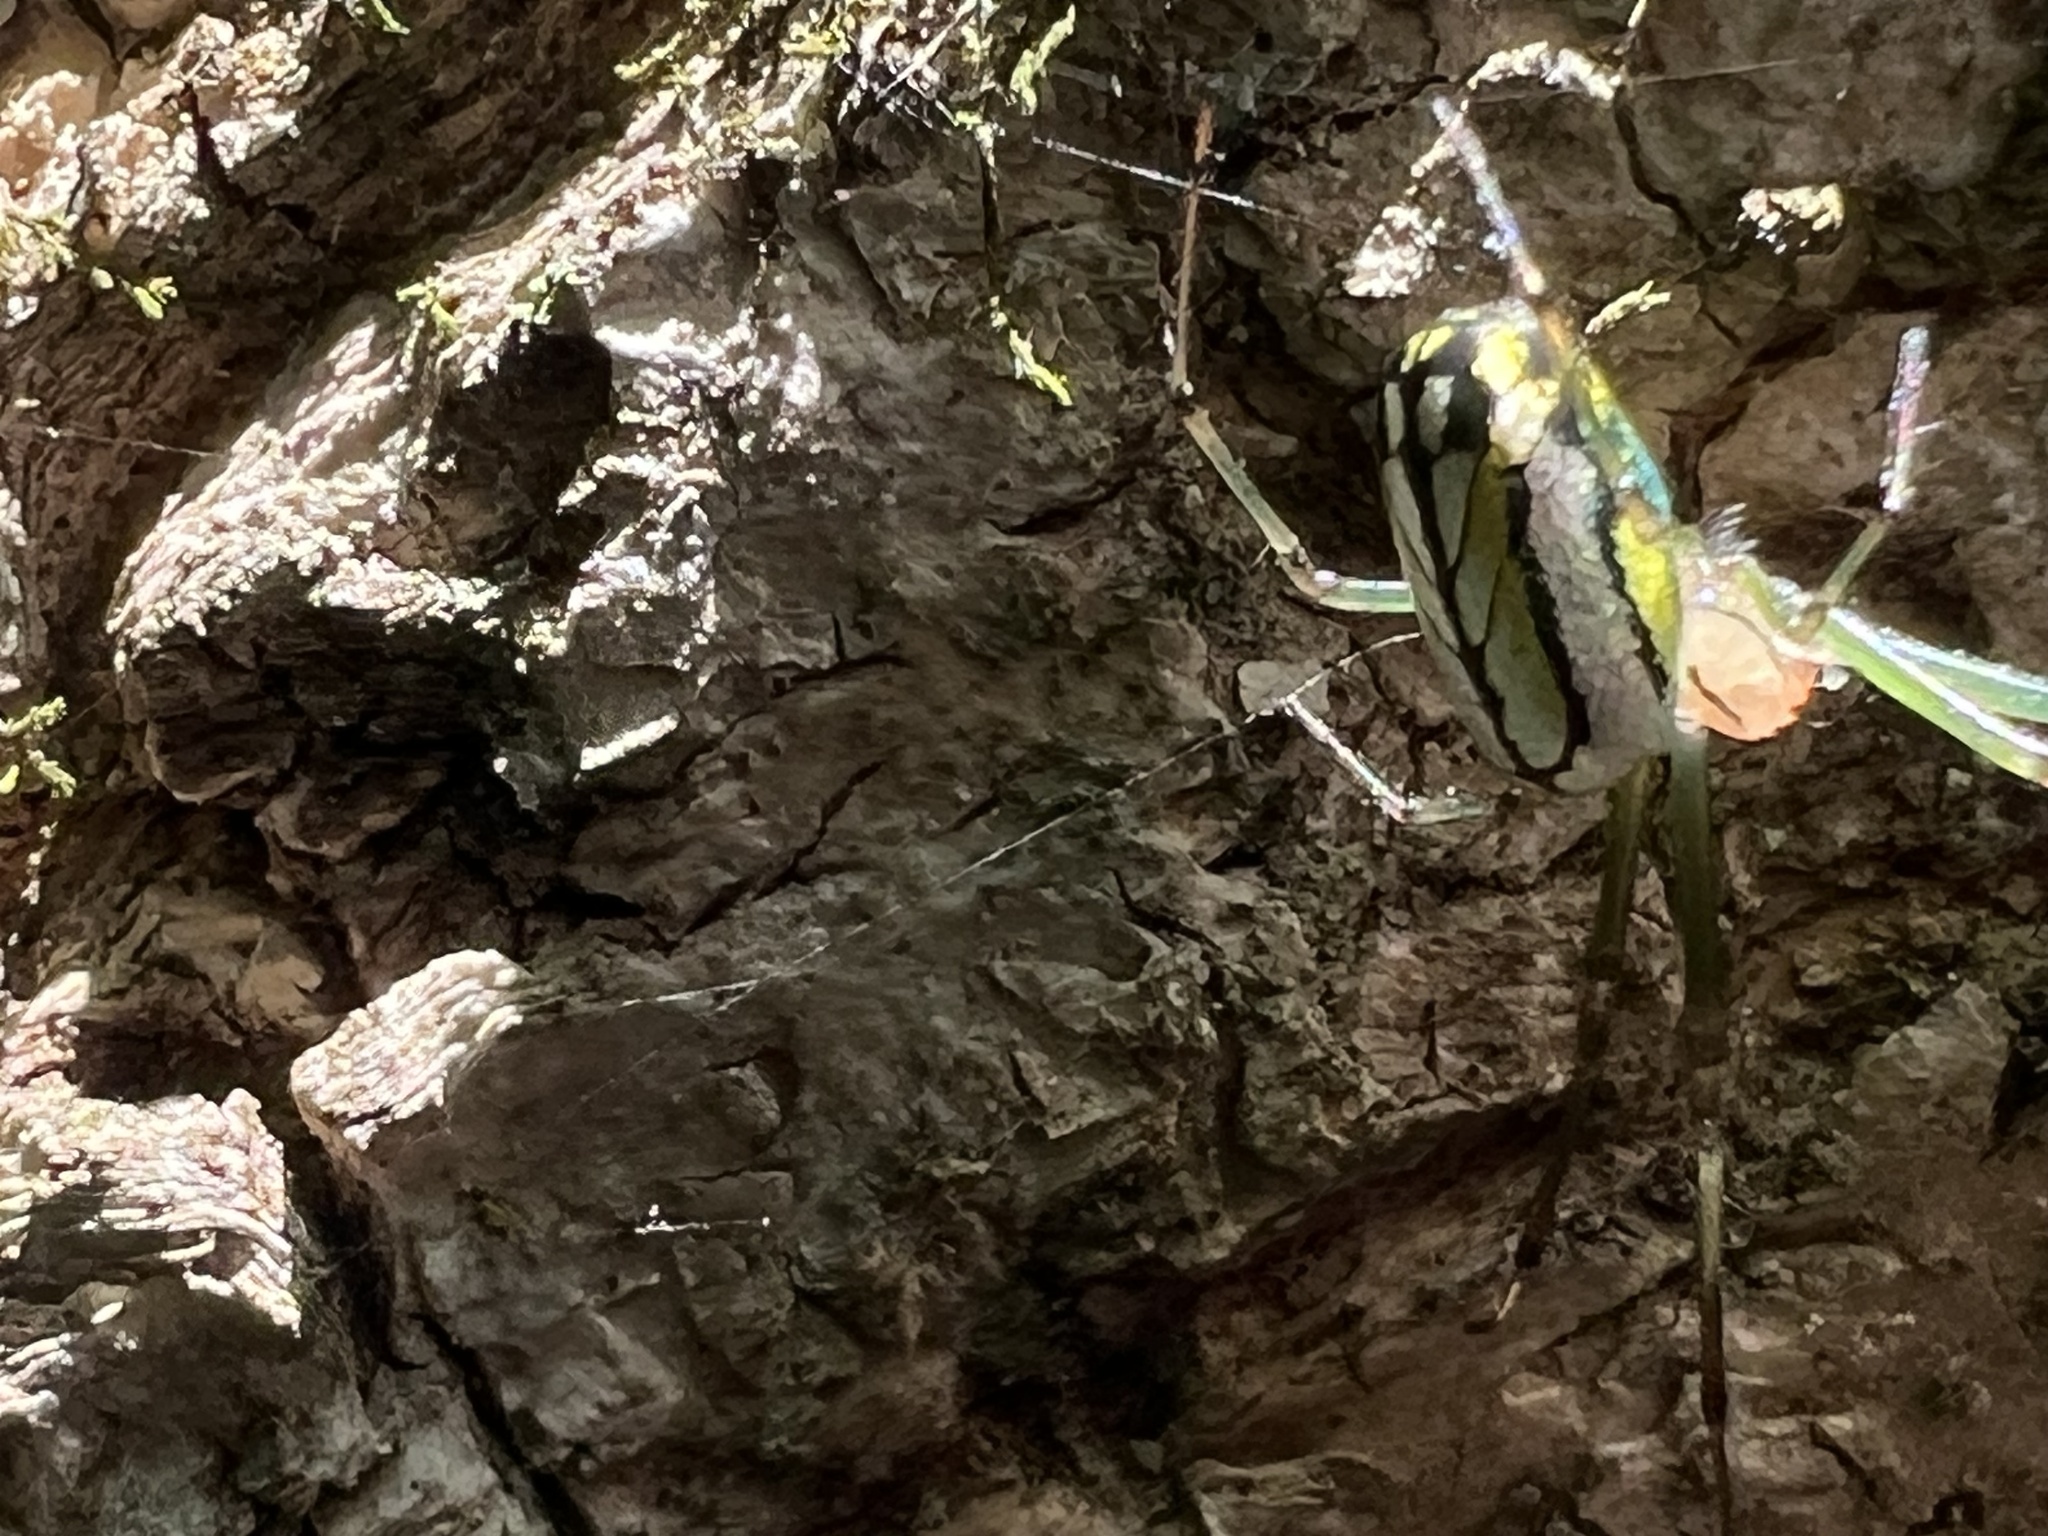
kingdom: Animalia
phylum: Arthropoda
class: Arachnida
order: Araneae
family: Tetragnathidae
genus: Leucauge
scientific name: Leucauge venusta
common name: Longjawed orb weavers
